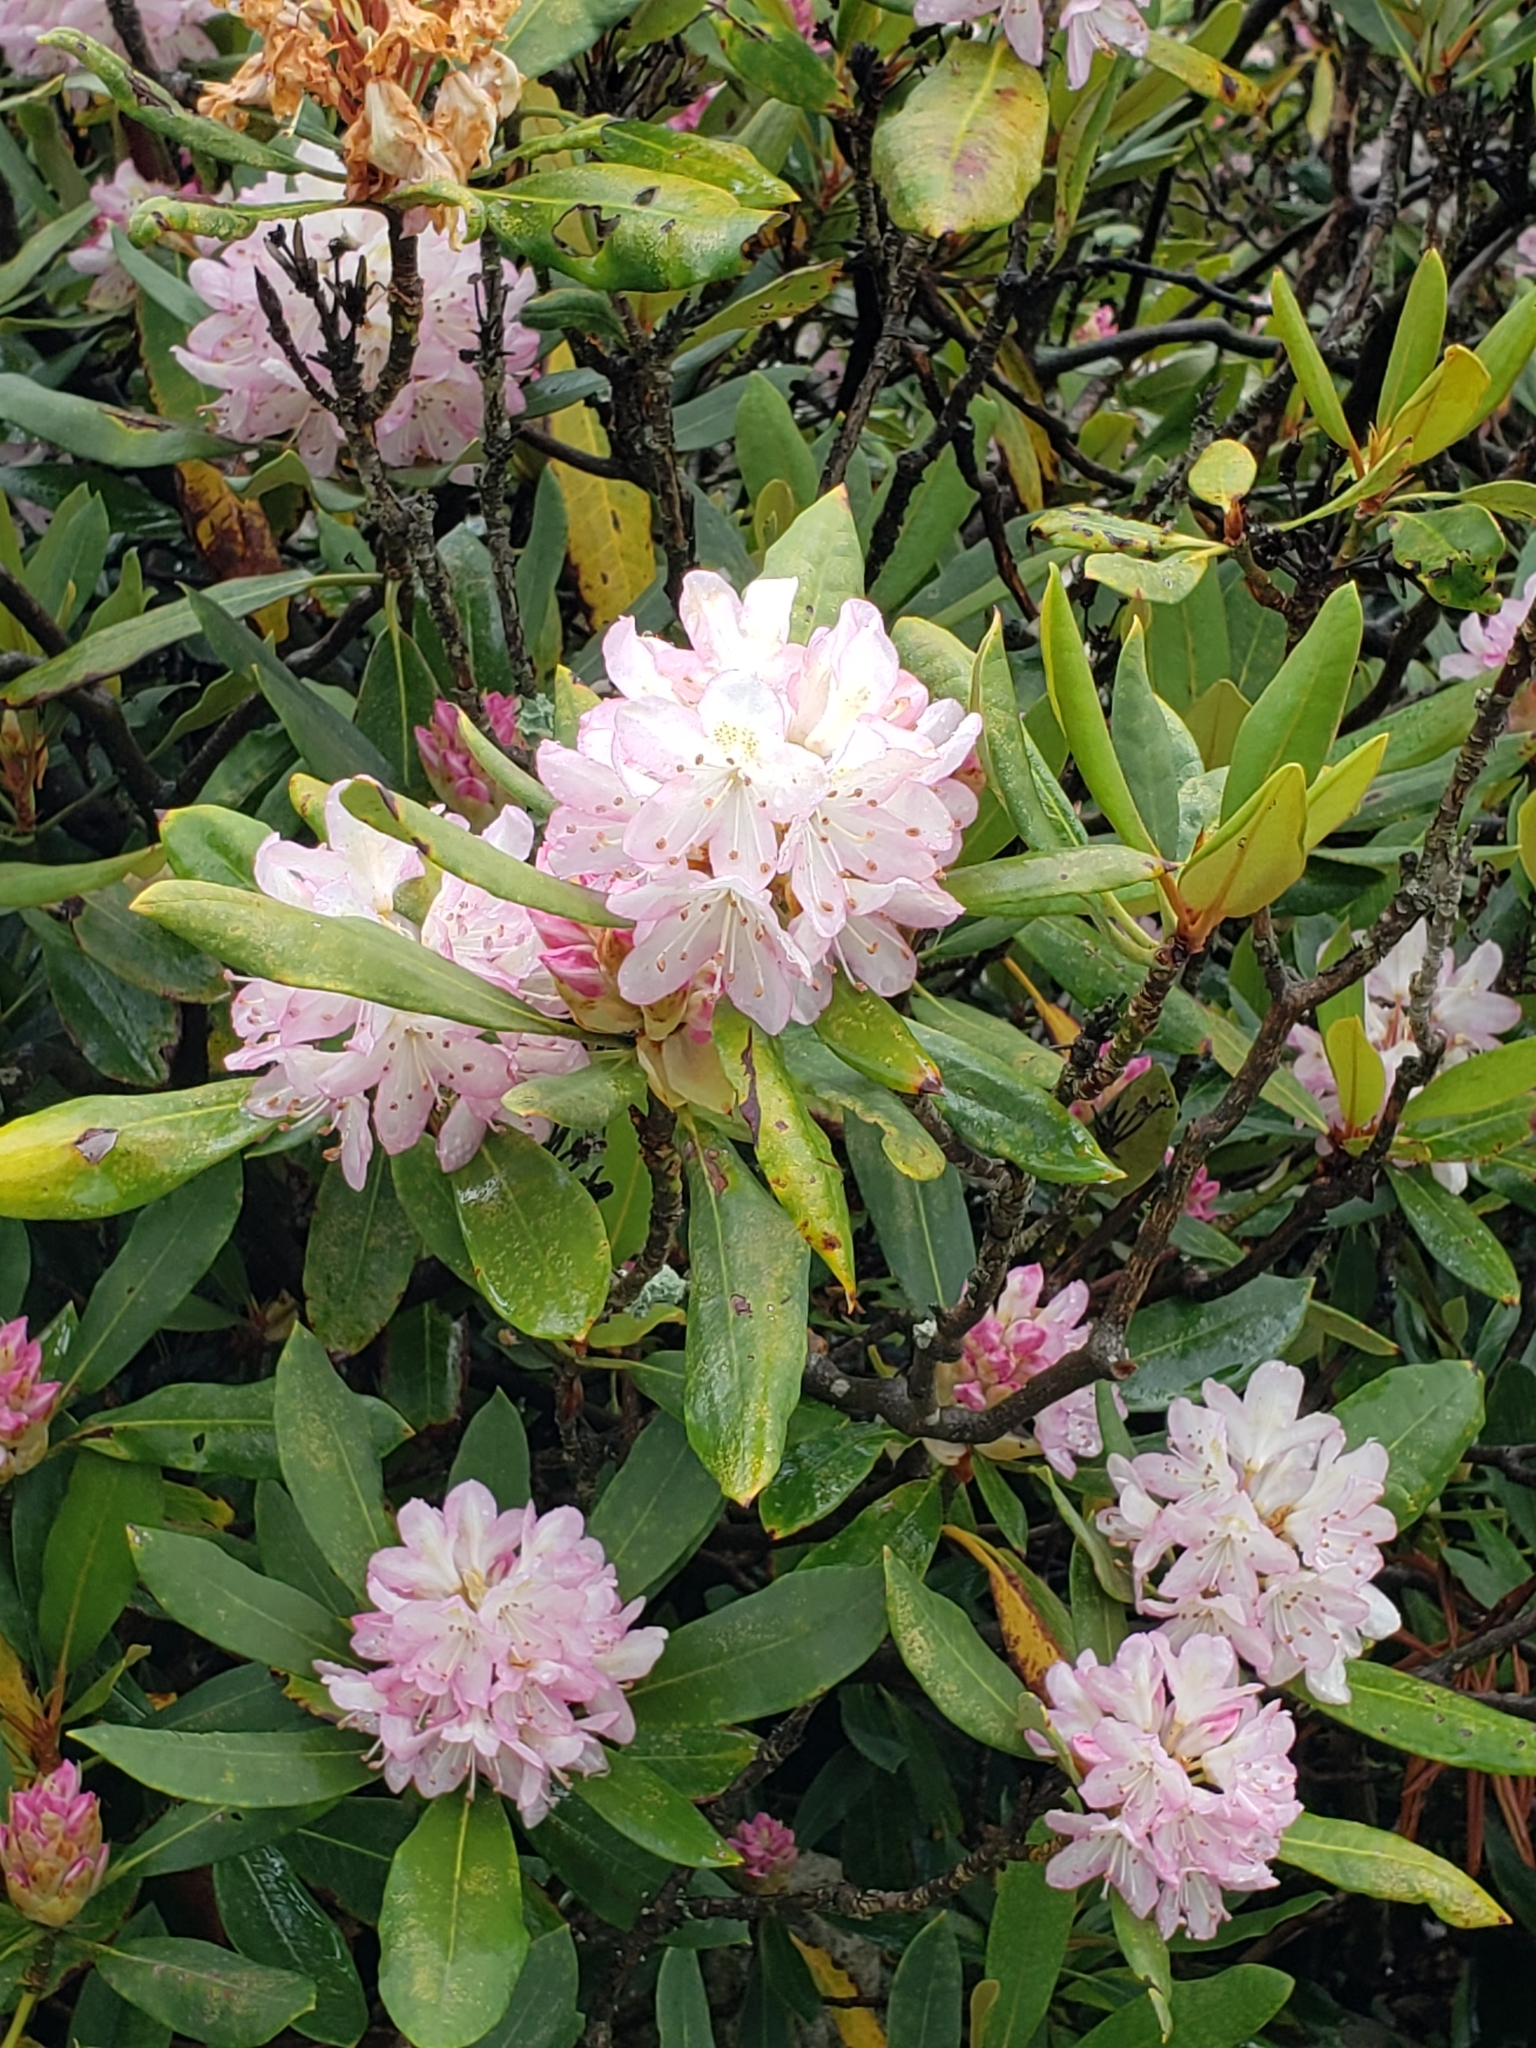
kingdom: Plantae
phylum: Tracheophyta
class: Magnoliopsida
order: Ericales
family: Ericaceae
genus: Rhododendron
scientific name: Rhododendron maximum
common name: Great rhododendron
